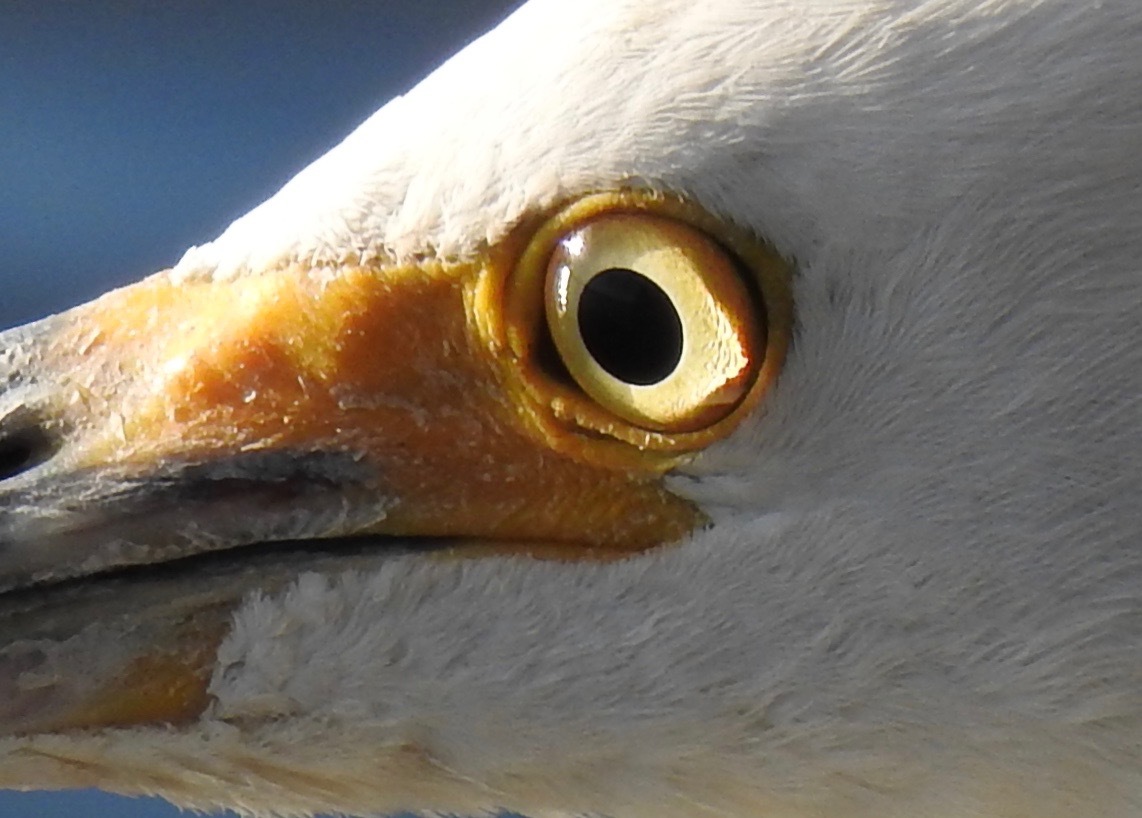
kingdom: Animalia
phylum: Chordata
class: Aves
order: Pelecaniformes
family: Ardeidae
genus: Egretta
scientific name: Egretta thula
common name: Snowy egret
